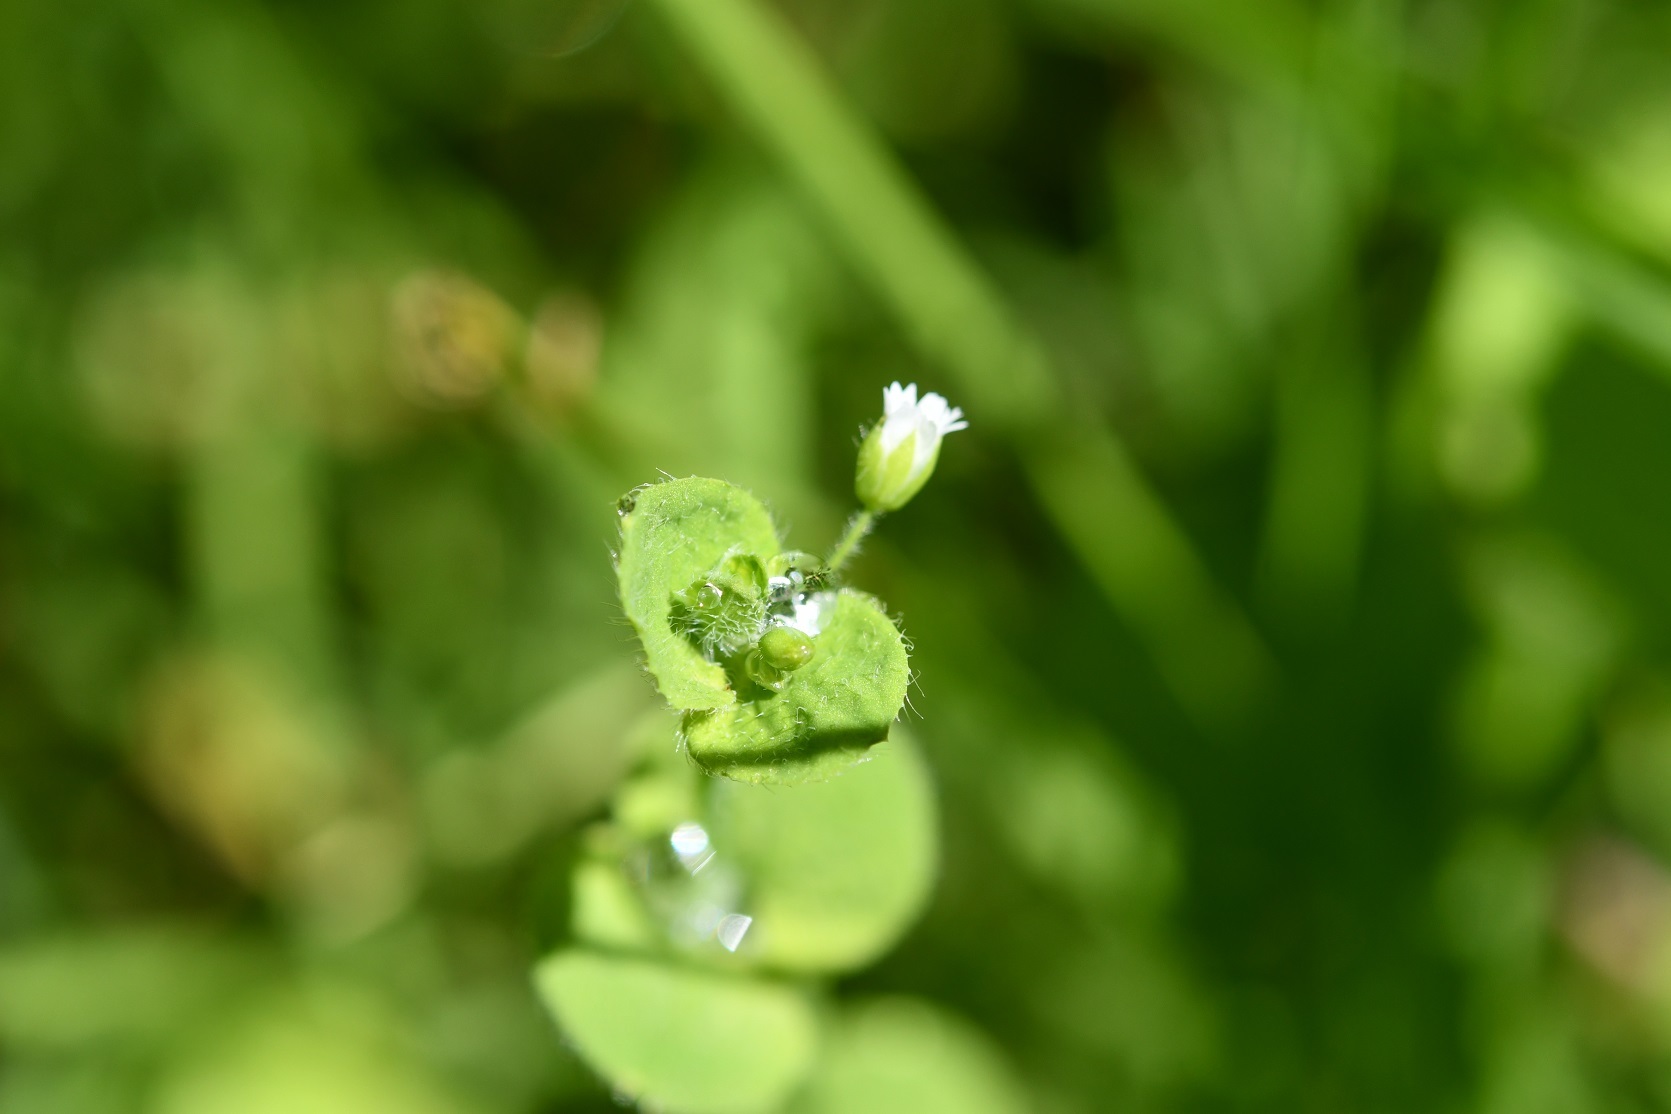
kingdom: Plantae
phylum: Tracheophyta
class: Magnoliopsida
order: Caryophyllales
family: Caryophyllaceae
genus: Drymaria
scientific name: Drymaria villosa
